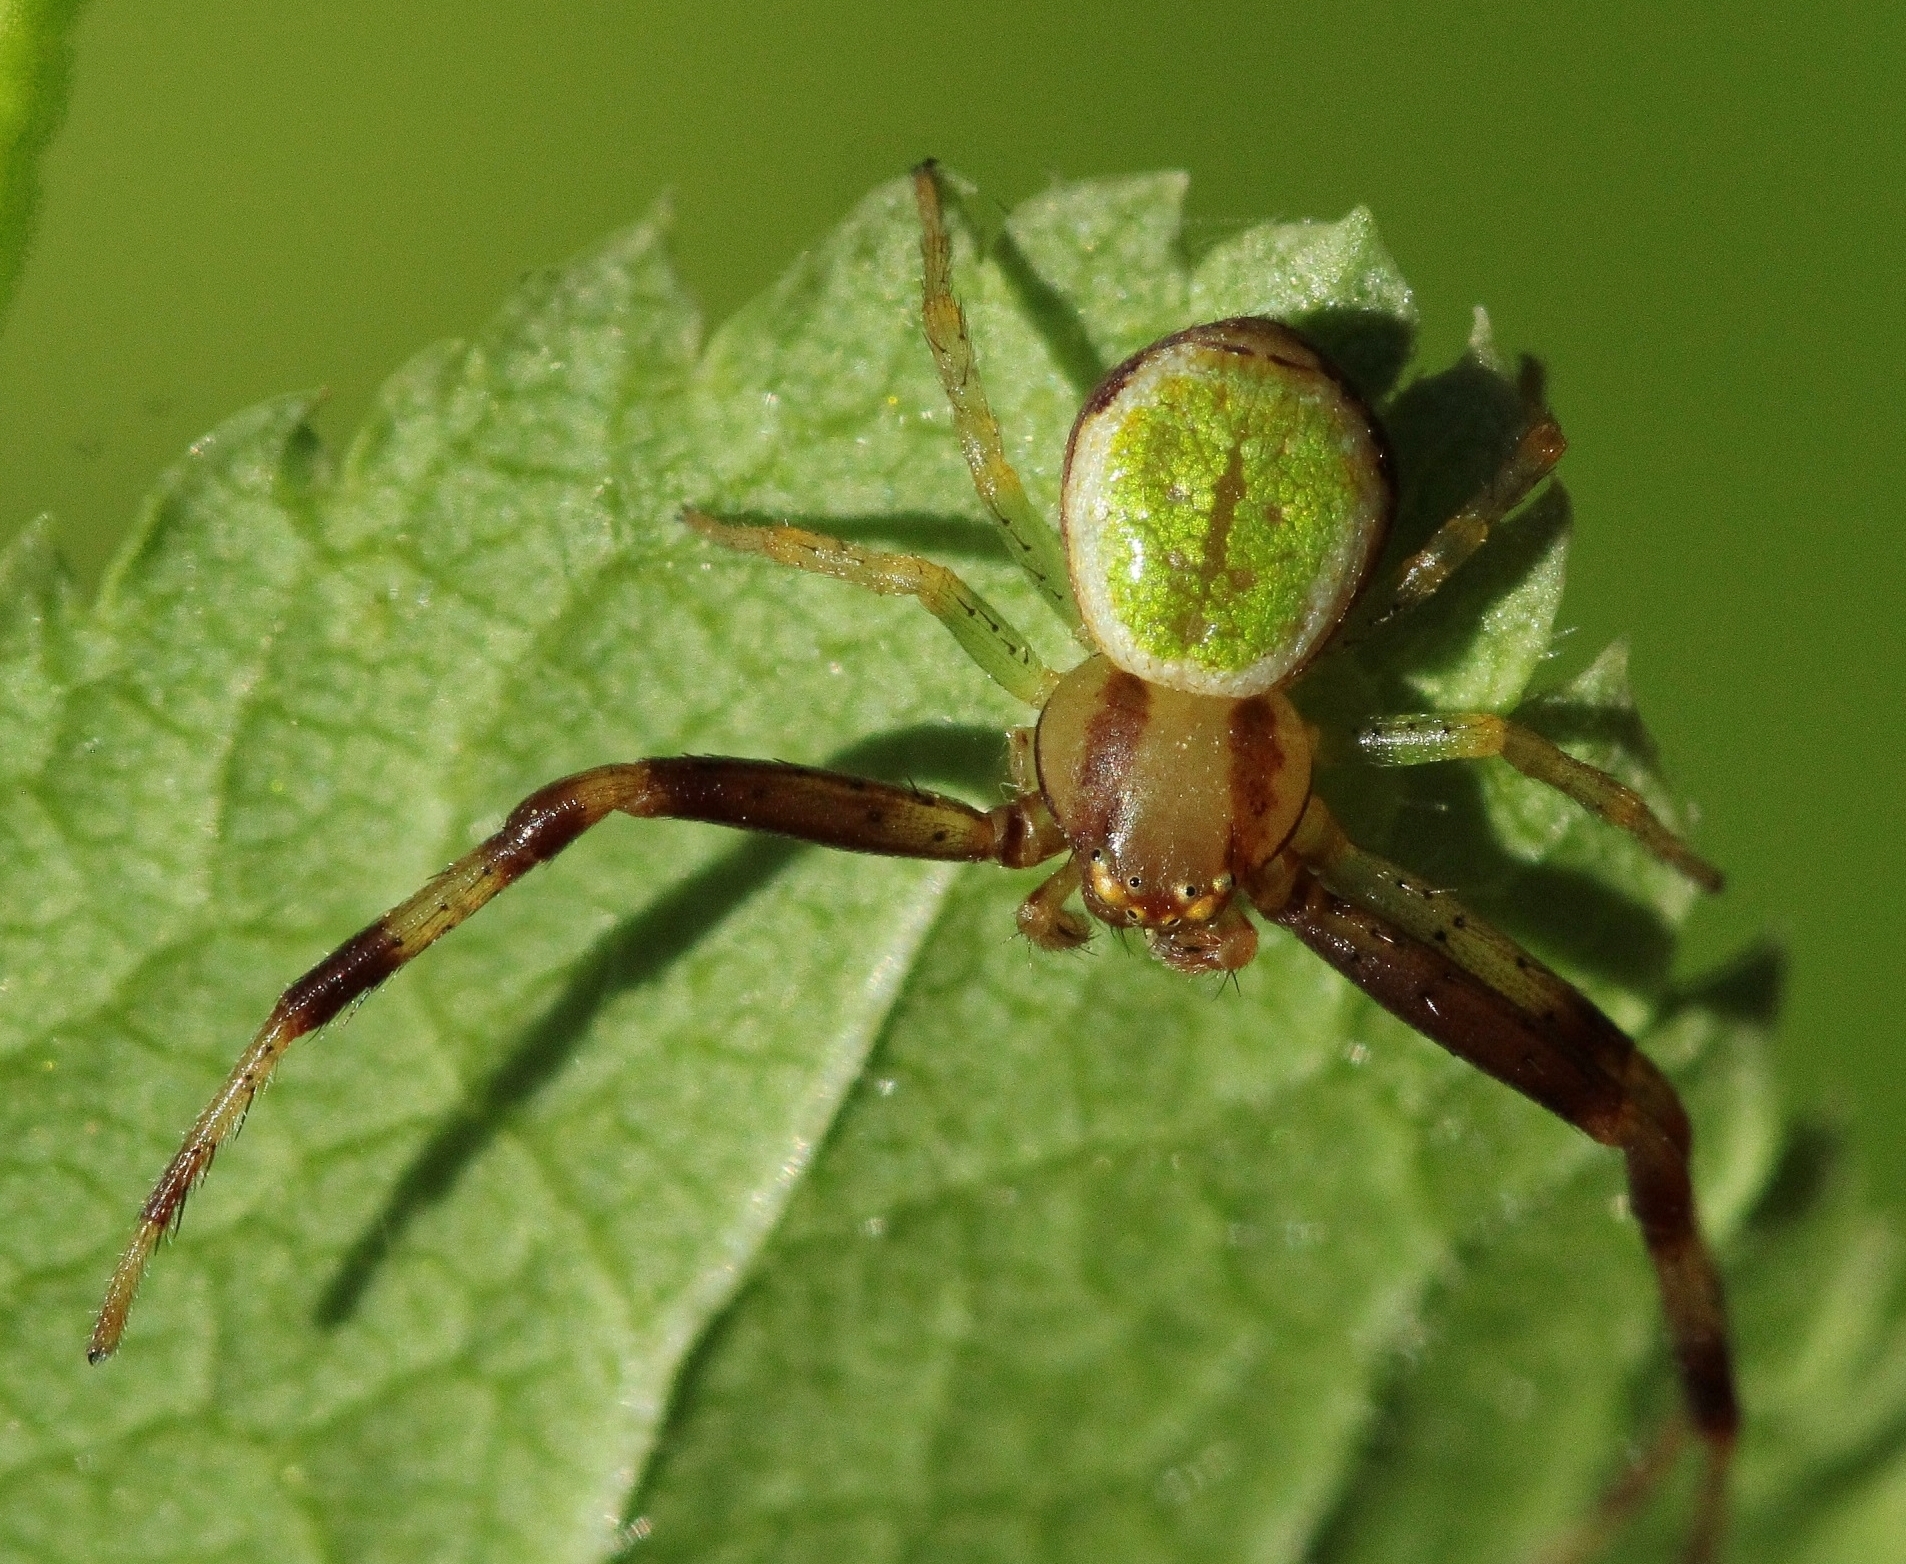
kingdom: Animalia
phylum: Arthropoda
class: Arachnida
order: Araneae
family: Thomisidae
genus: Ebrechtella
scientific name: Ebrechtella tricuspidata
